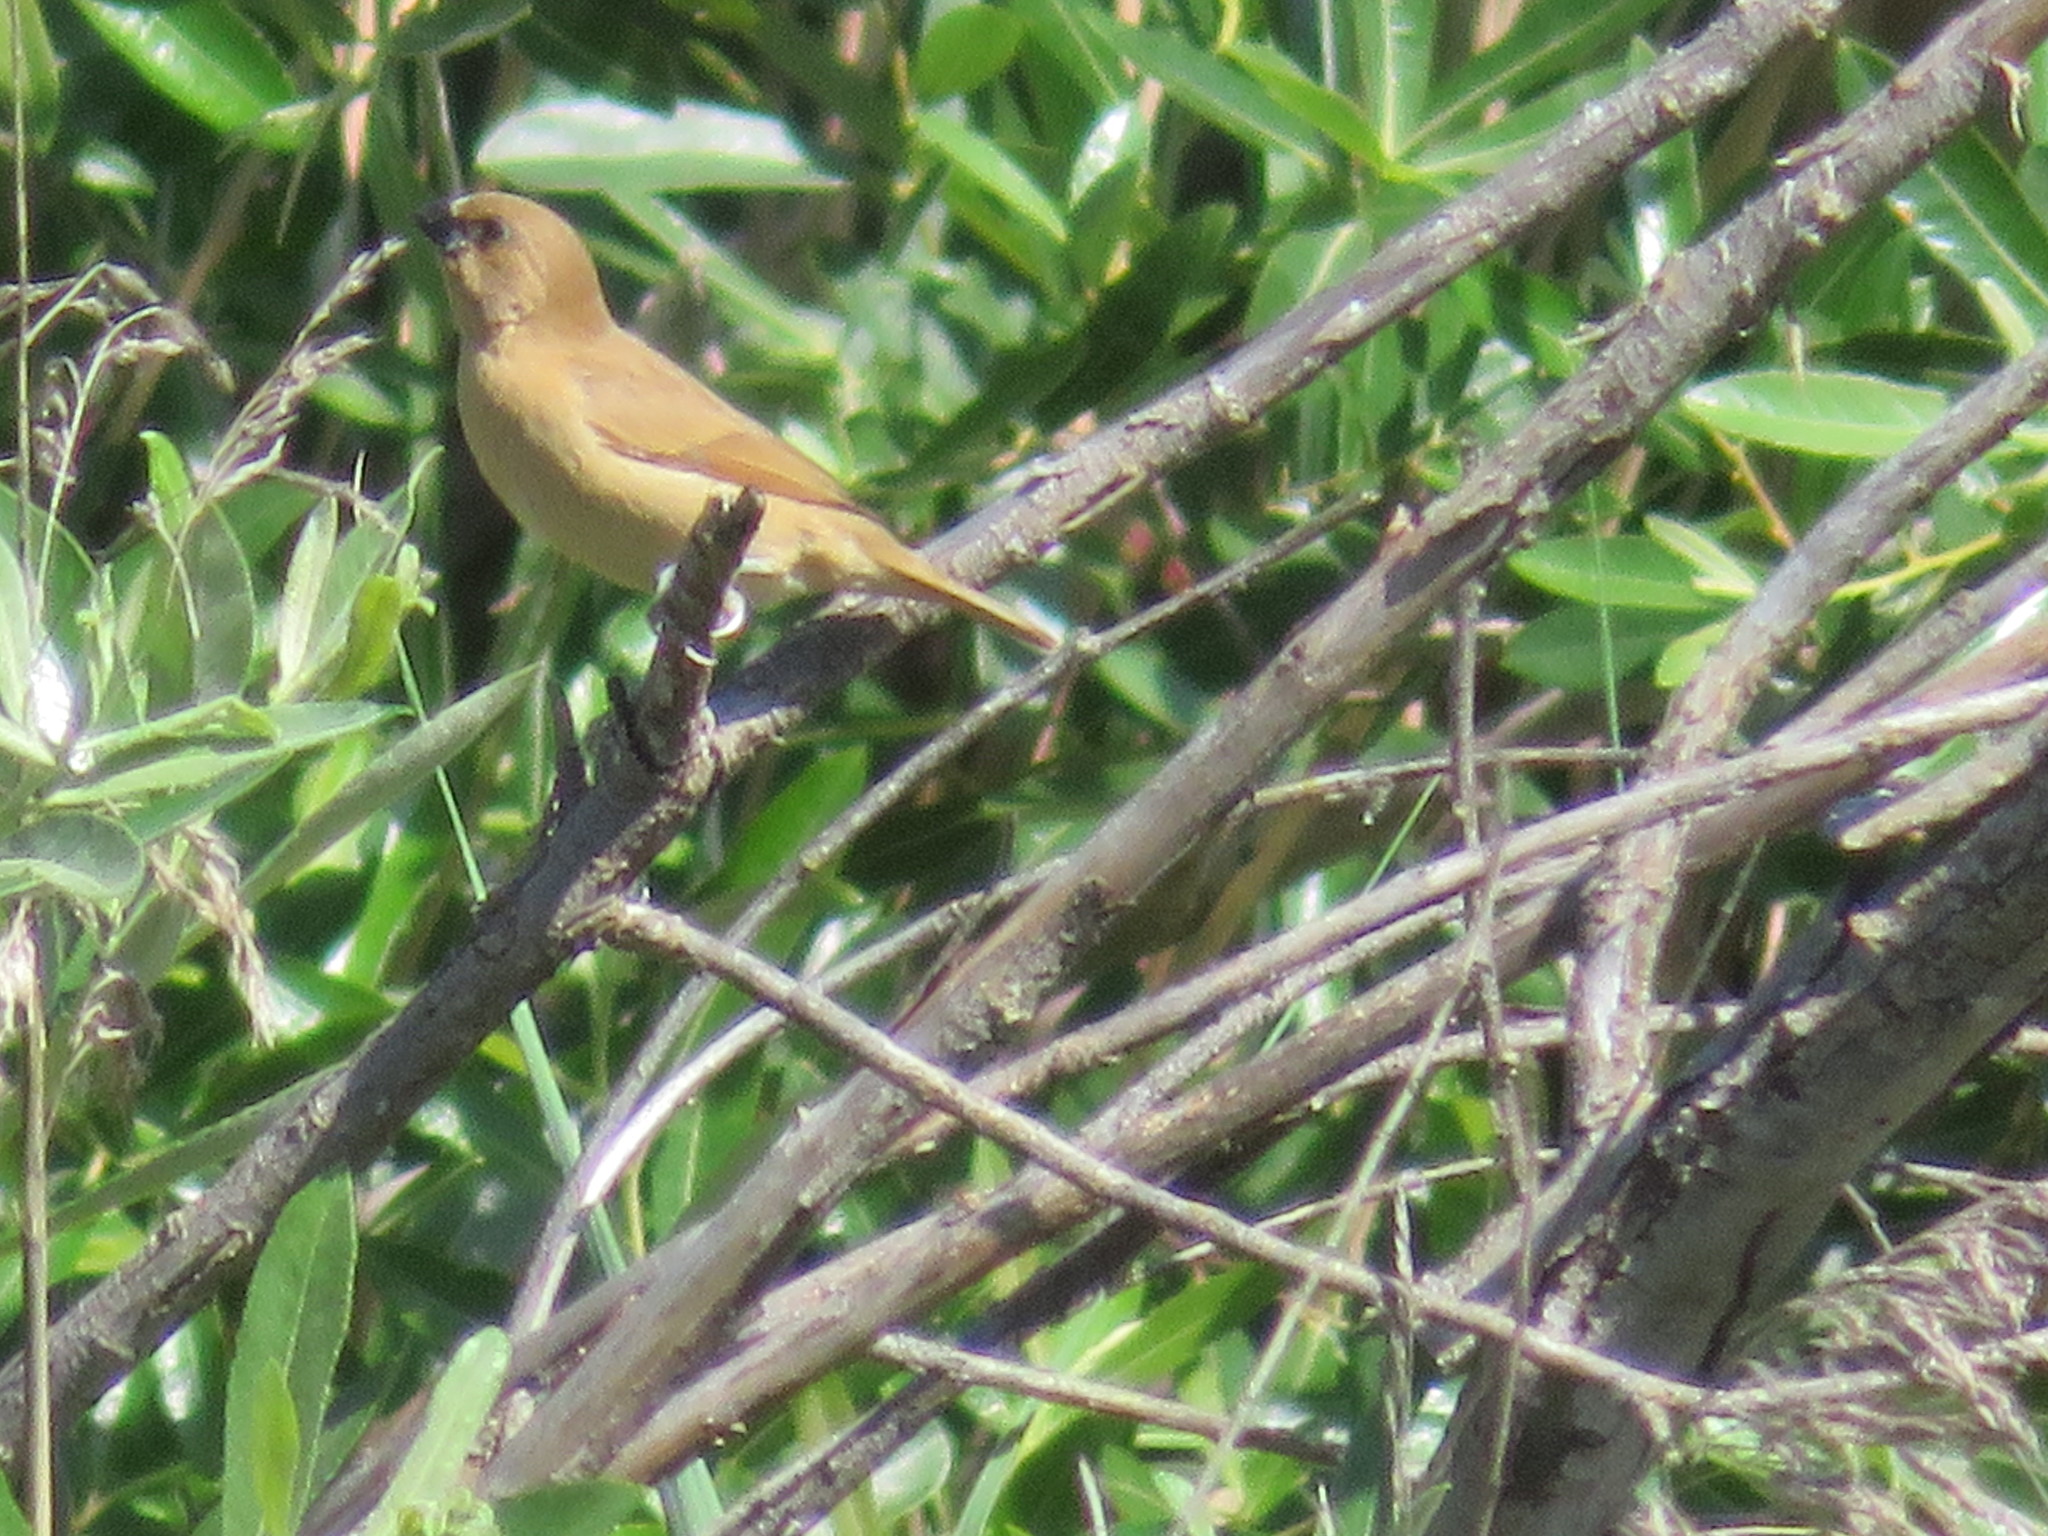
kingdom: Animalia
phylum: Chordata
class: Aves
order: Passeriformes
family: Estrildidae
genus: Lonchura
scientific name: Lonchura punctulata
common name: Scaly-breasted munia
